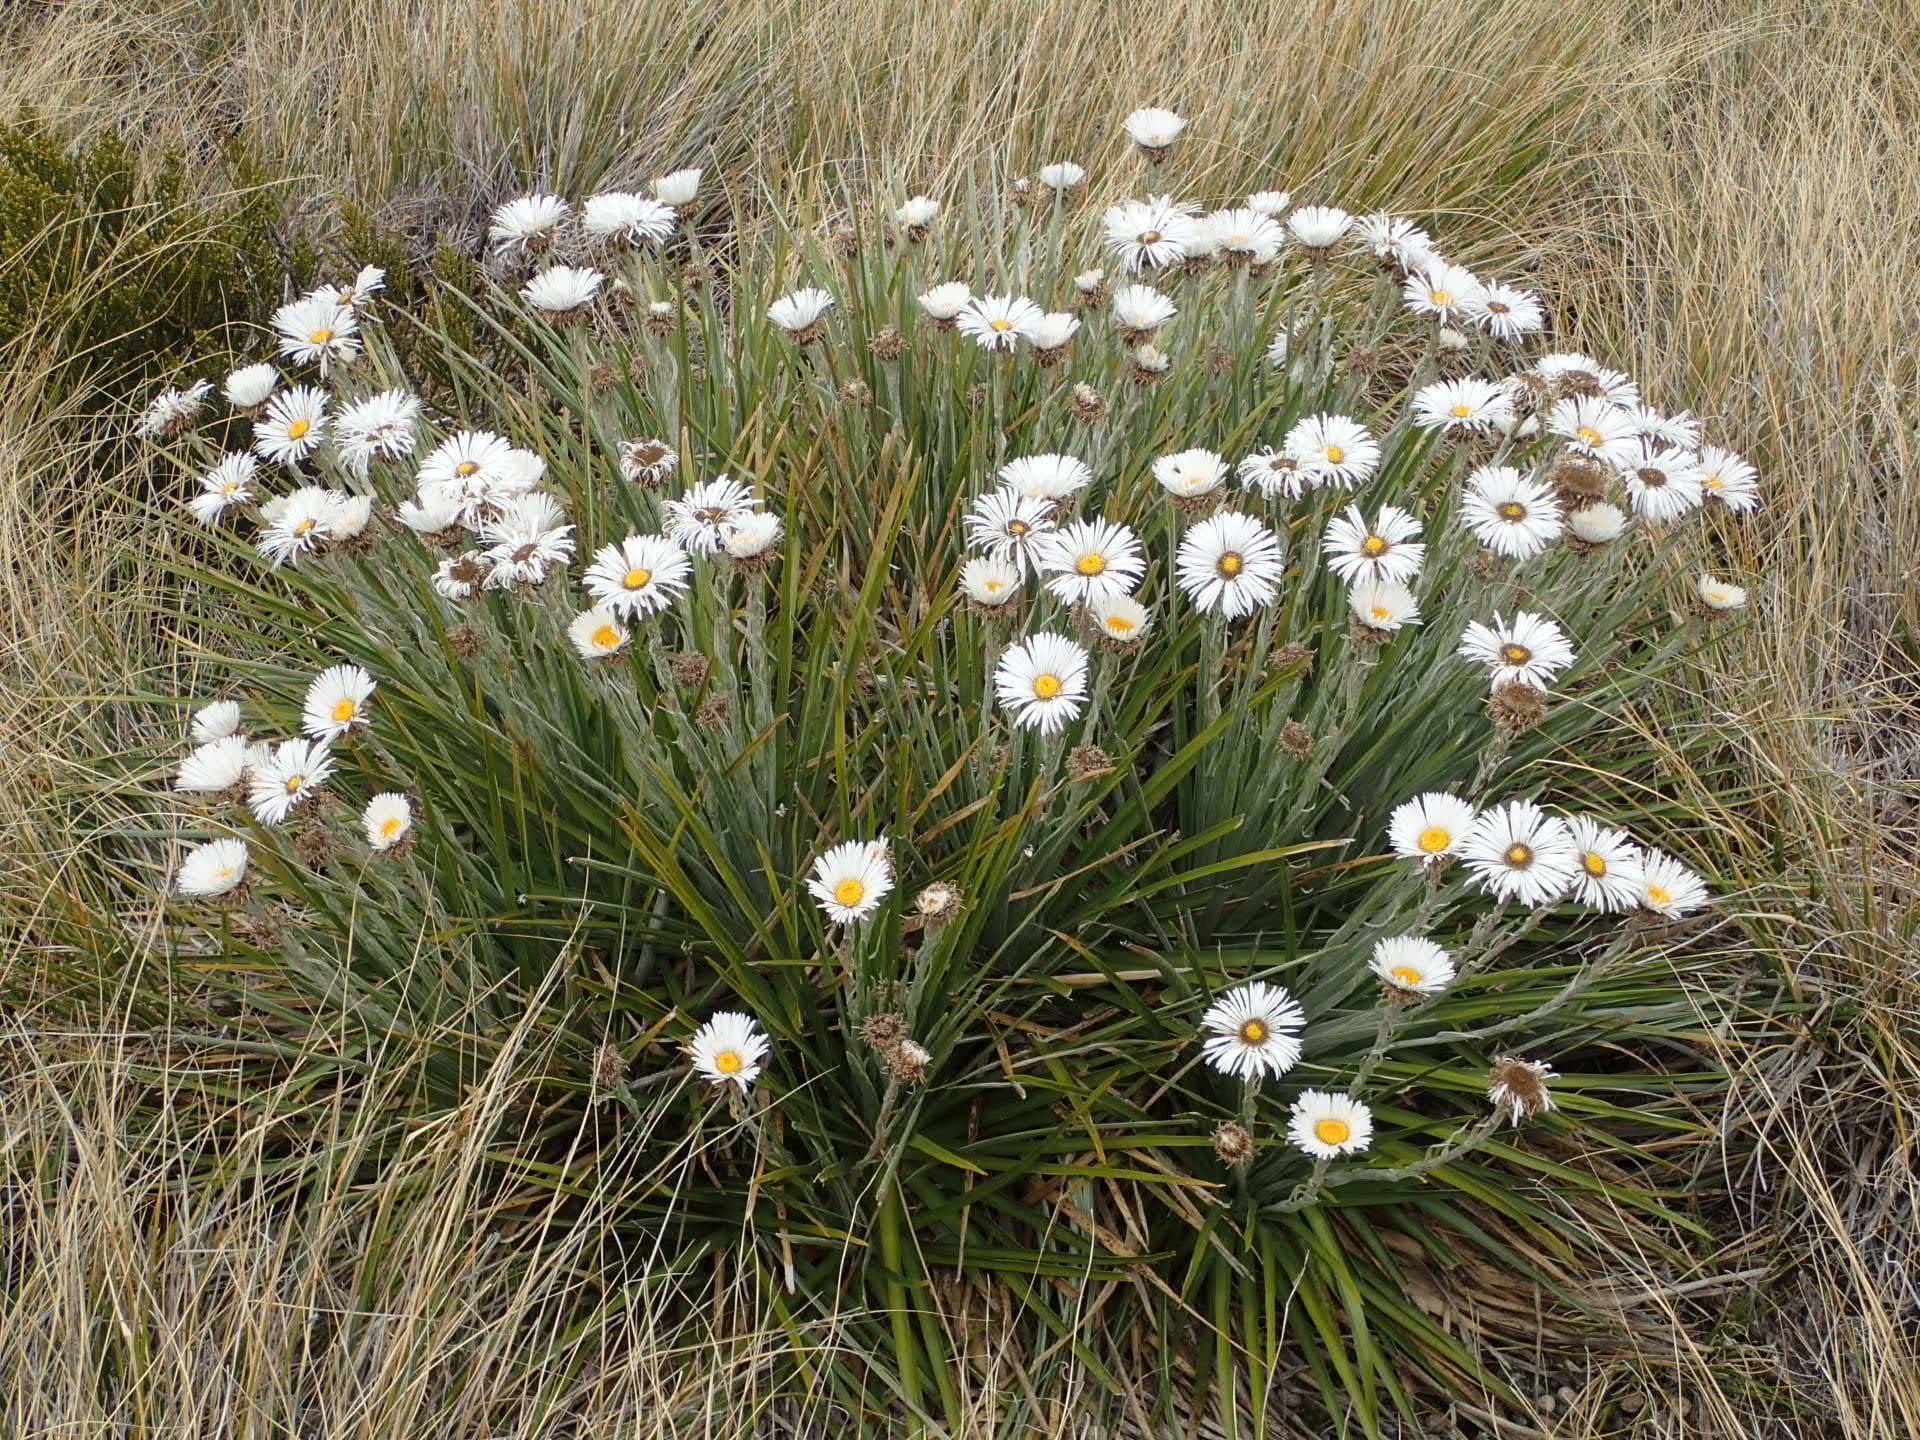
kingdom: Plantae
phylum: Tracheophyta
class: Magnoliopsida
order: Asterales
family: Asteraceae
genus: Celmisia
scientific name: Celmisia lyallii
